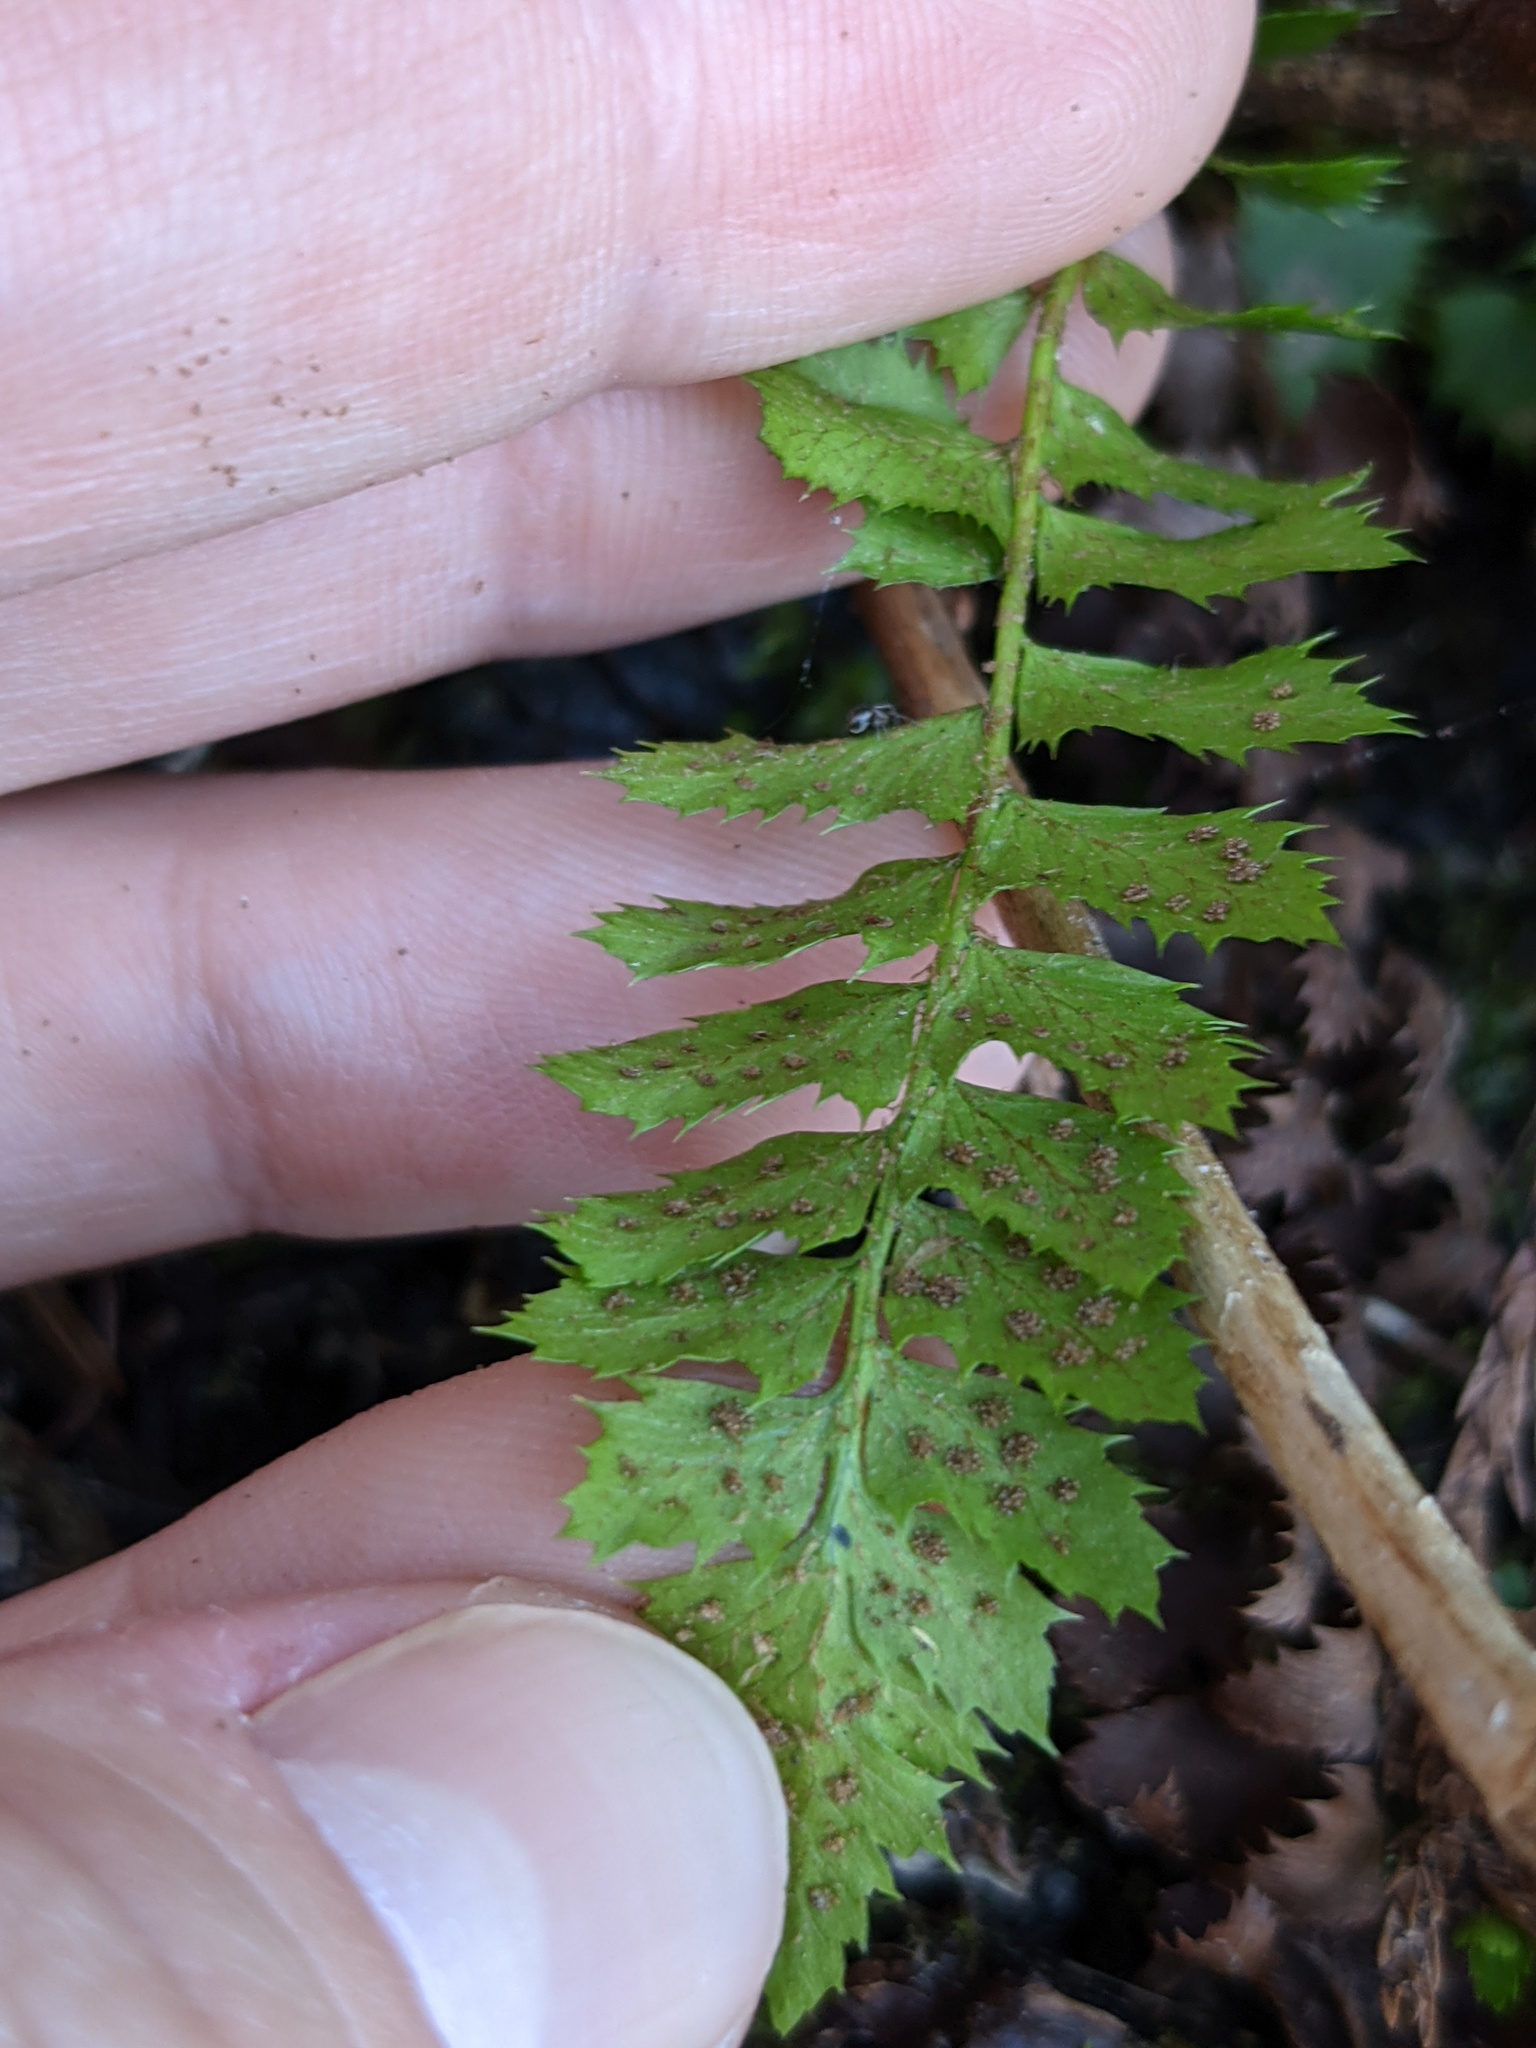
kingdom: Plantae
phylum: Tracheophyta
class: Polypodiopsida
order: Polypodiales
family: Dryopteridaceae
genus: Polystichum
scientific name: Polystichum lonchitis
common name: Holly fern
